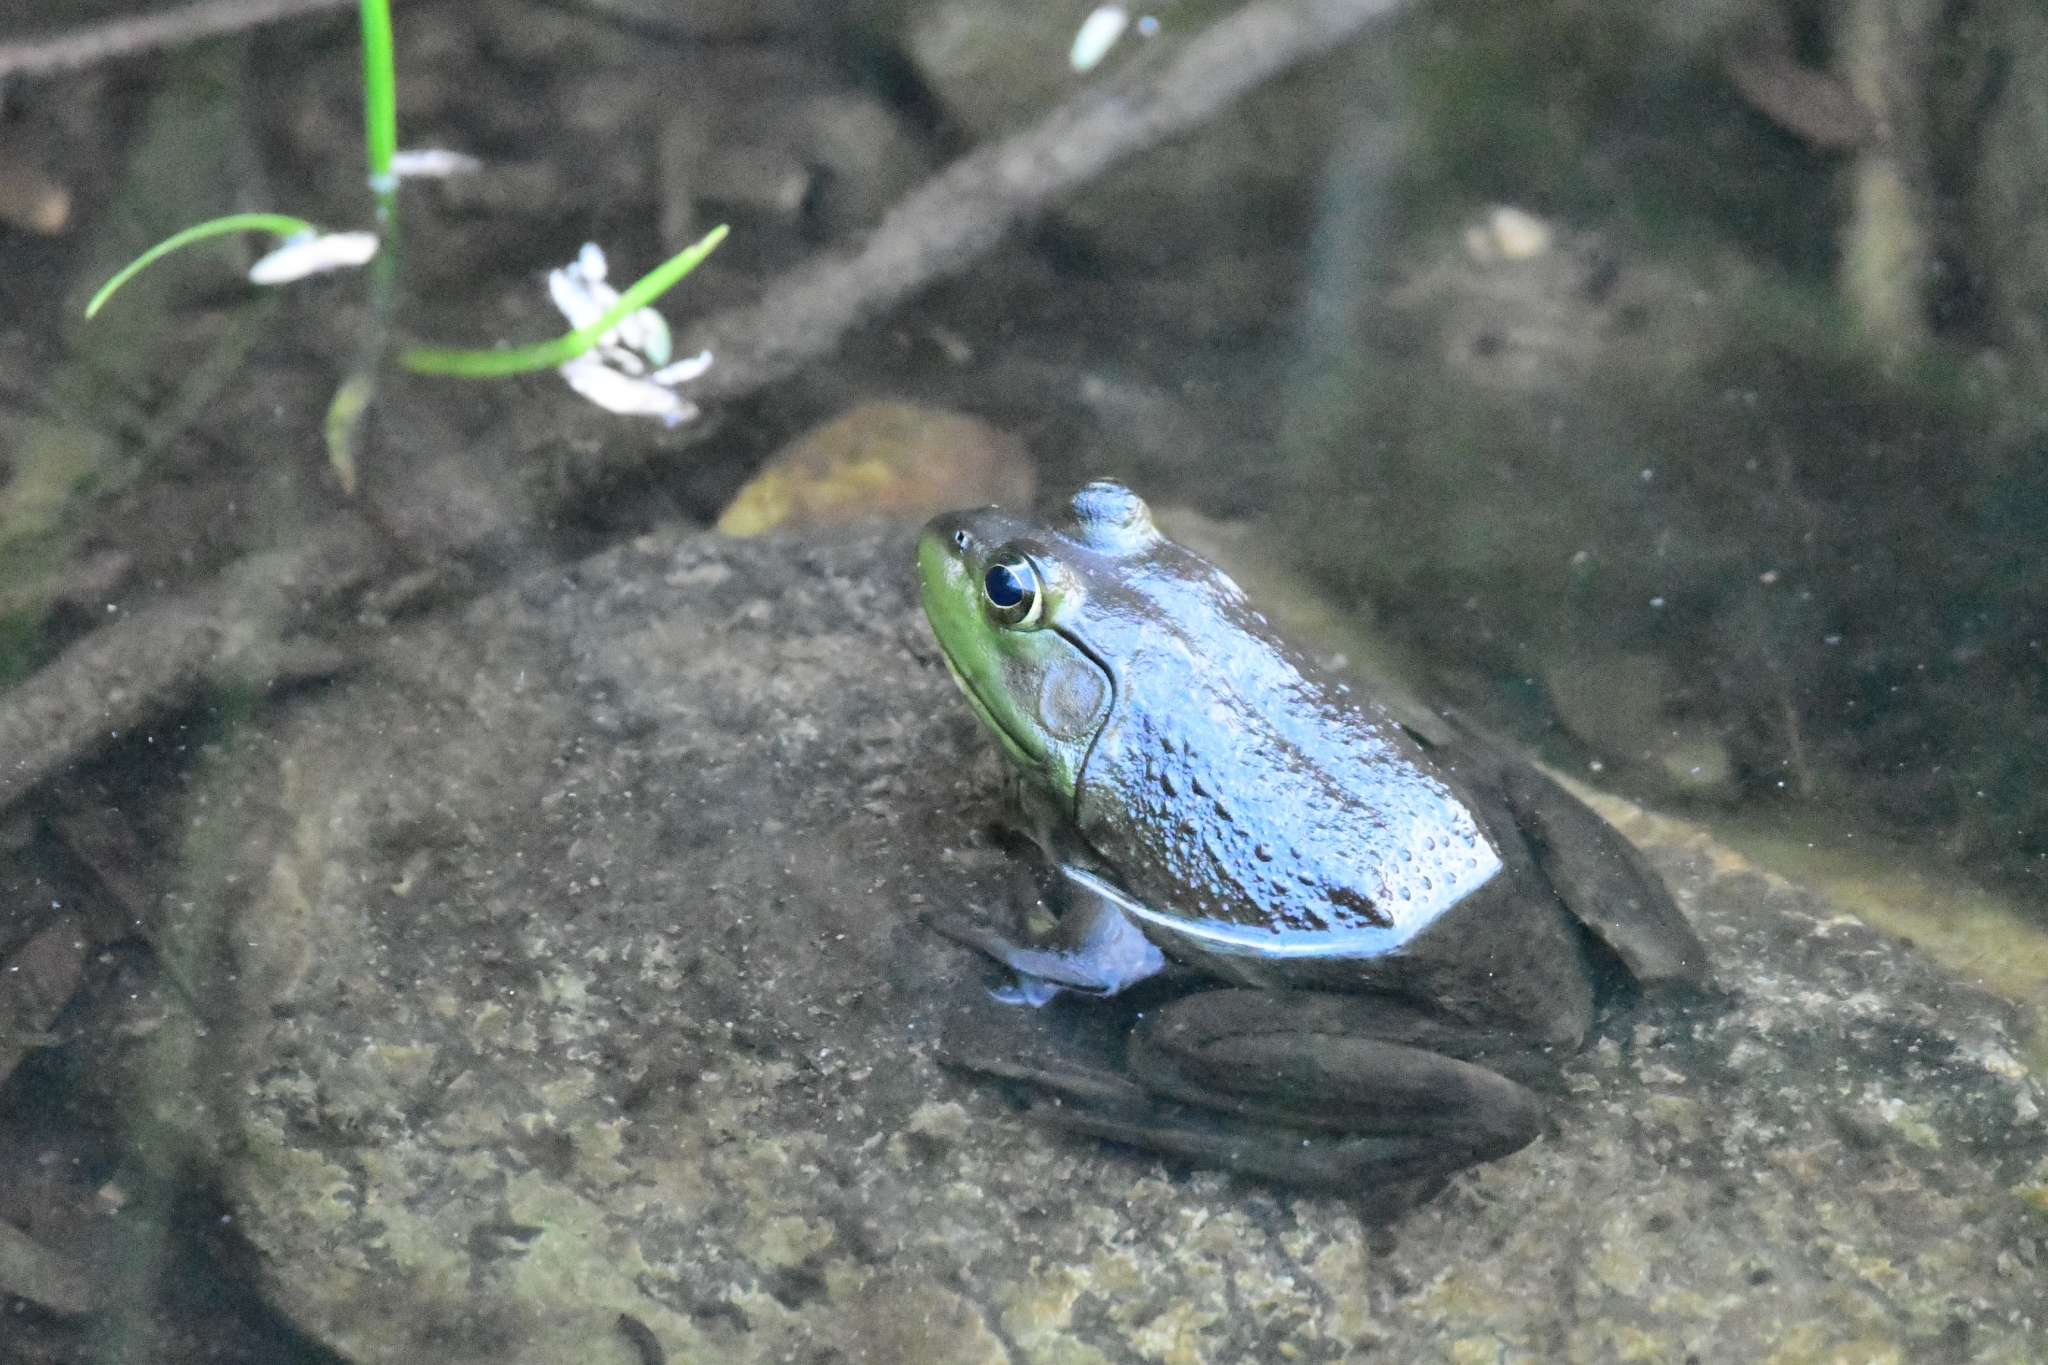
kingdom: Animalia
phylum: Chordata
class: Amphibia
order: Anura
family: Ranidae
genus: Lithobates
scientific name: Lithobates catesbeianus
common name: American bullfrog
